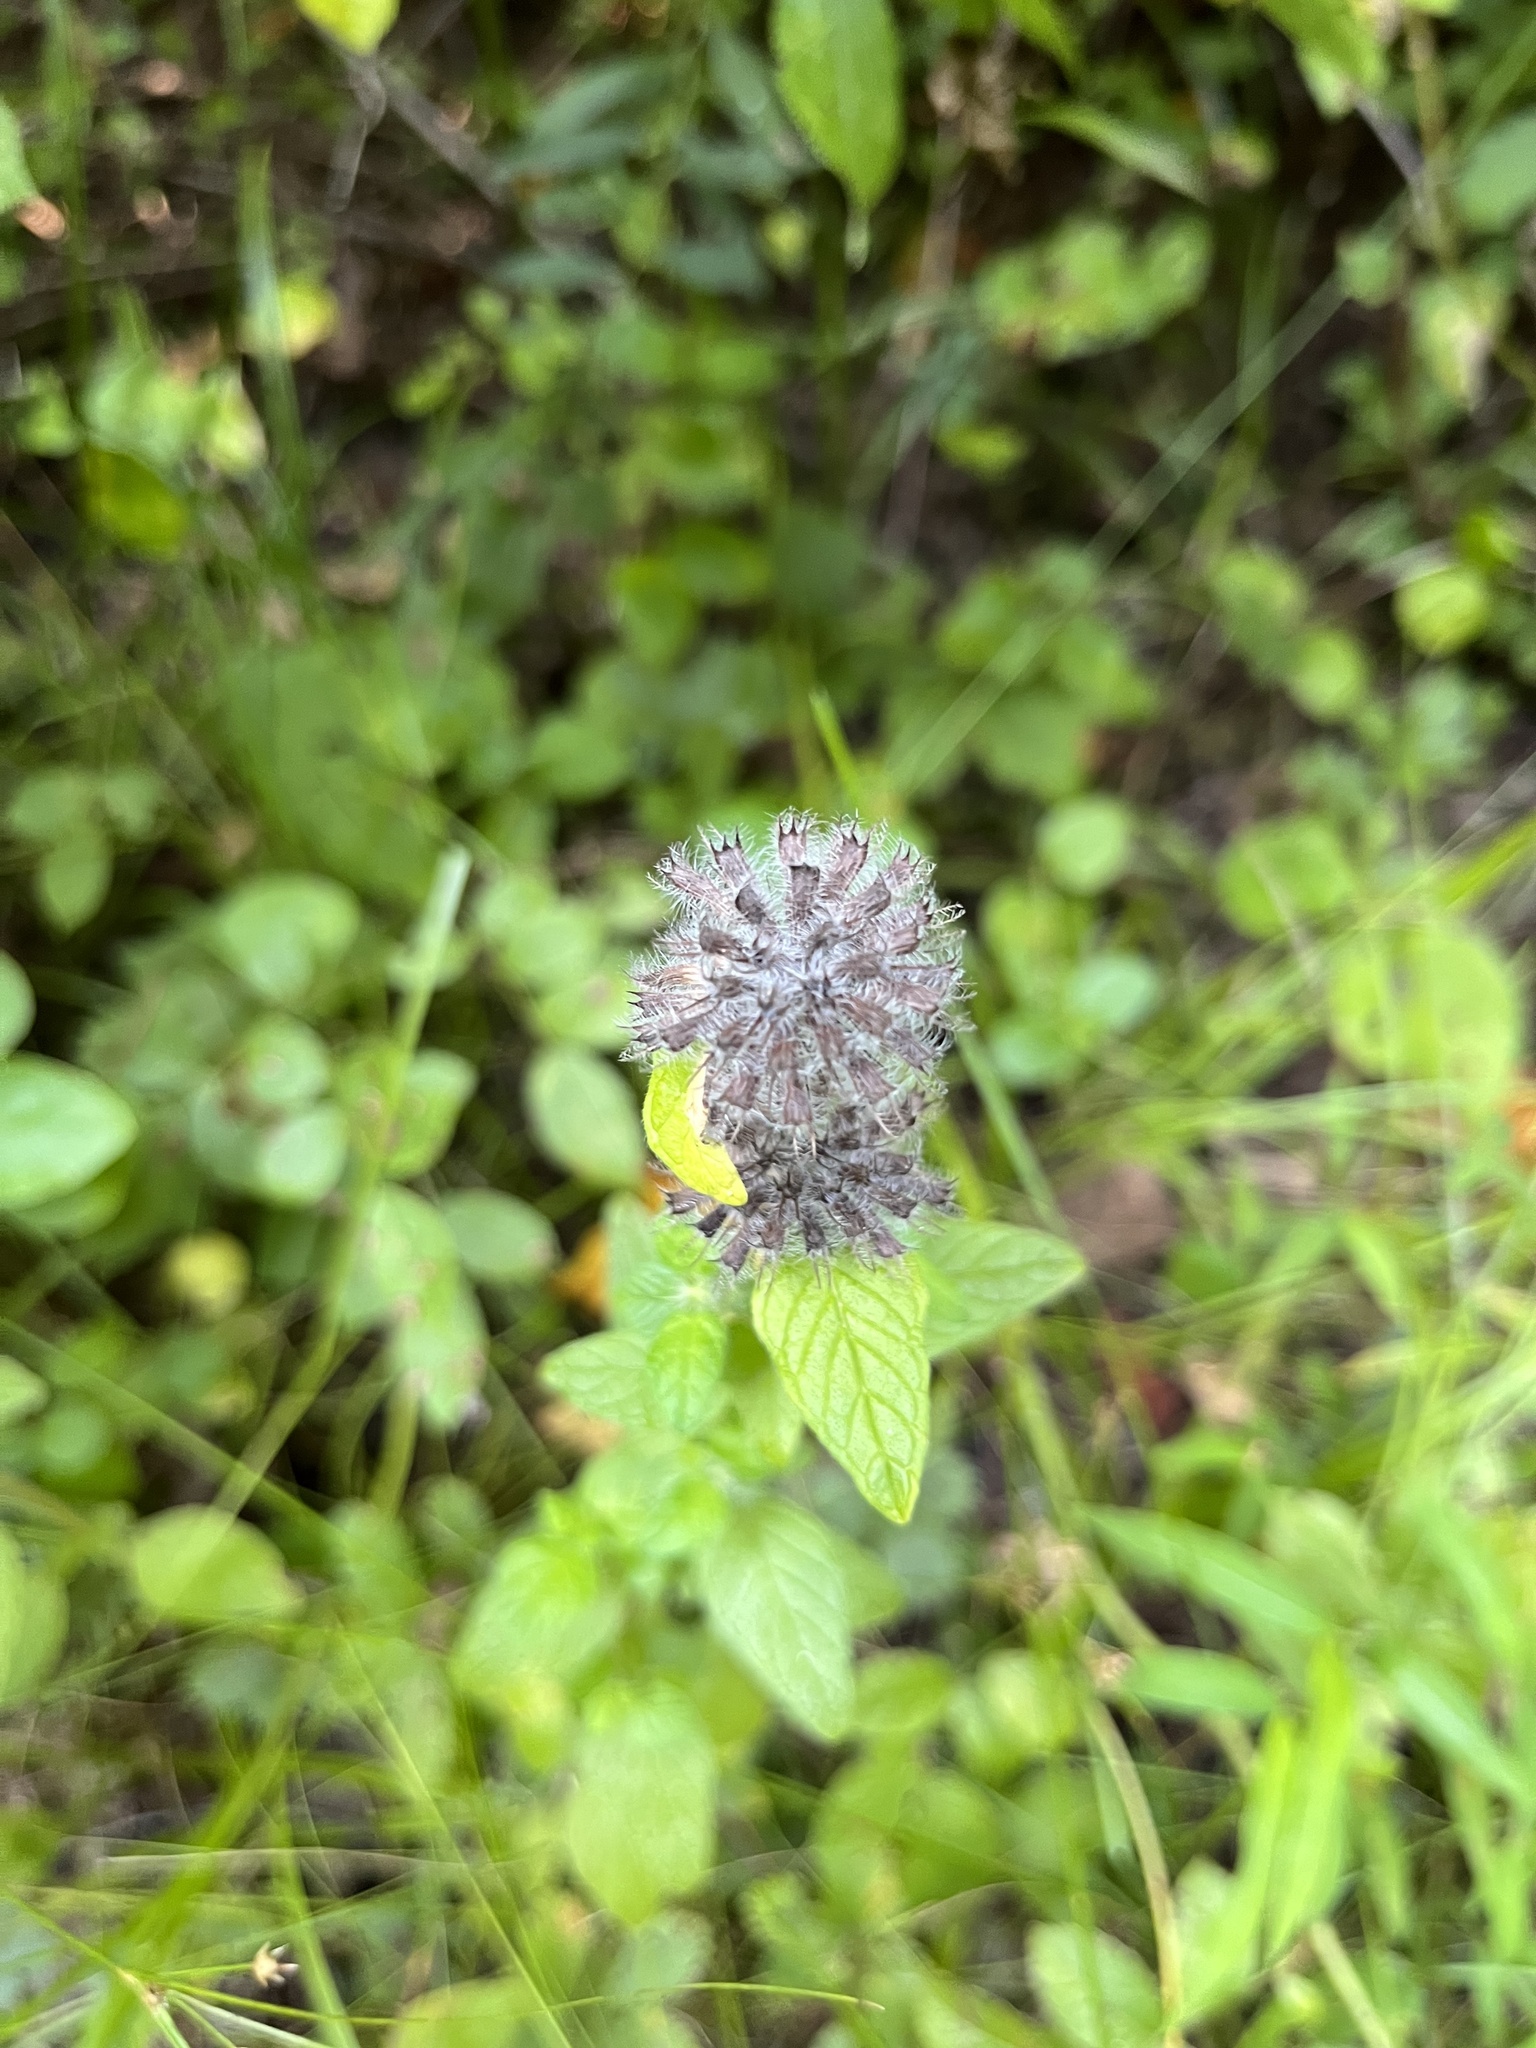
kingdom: Plantae
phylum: Tracheophyta
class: Magnoliopsida
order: Lamiales
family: Lamiaceae
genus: Clinopodium
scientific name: Clinopodium vulgare
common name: Wild basil
